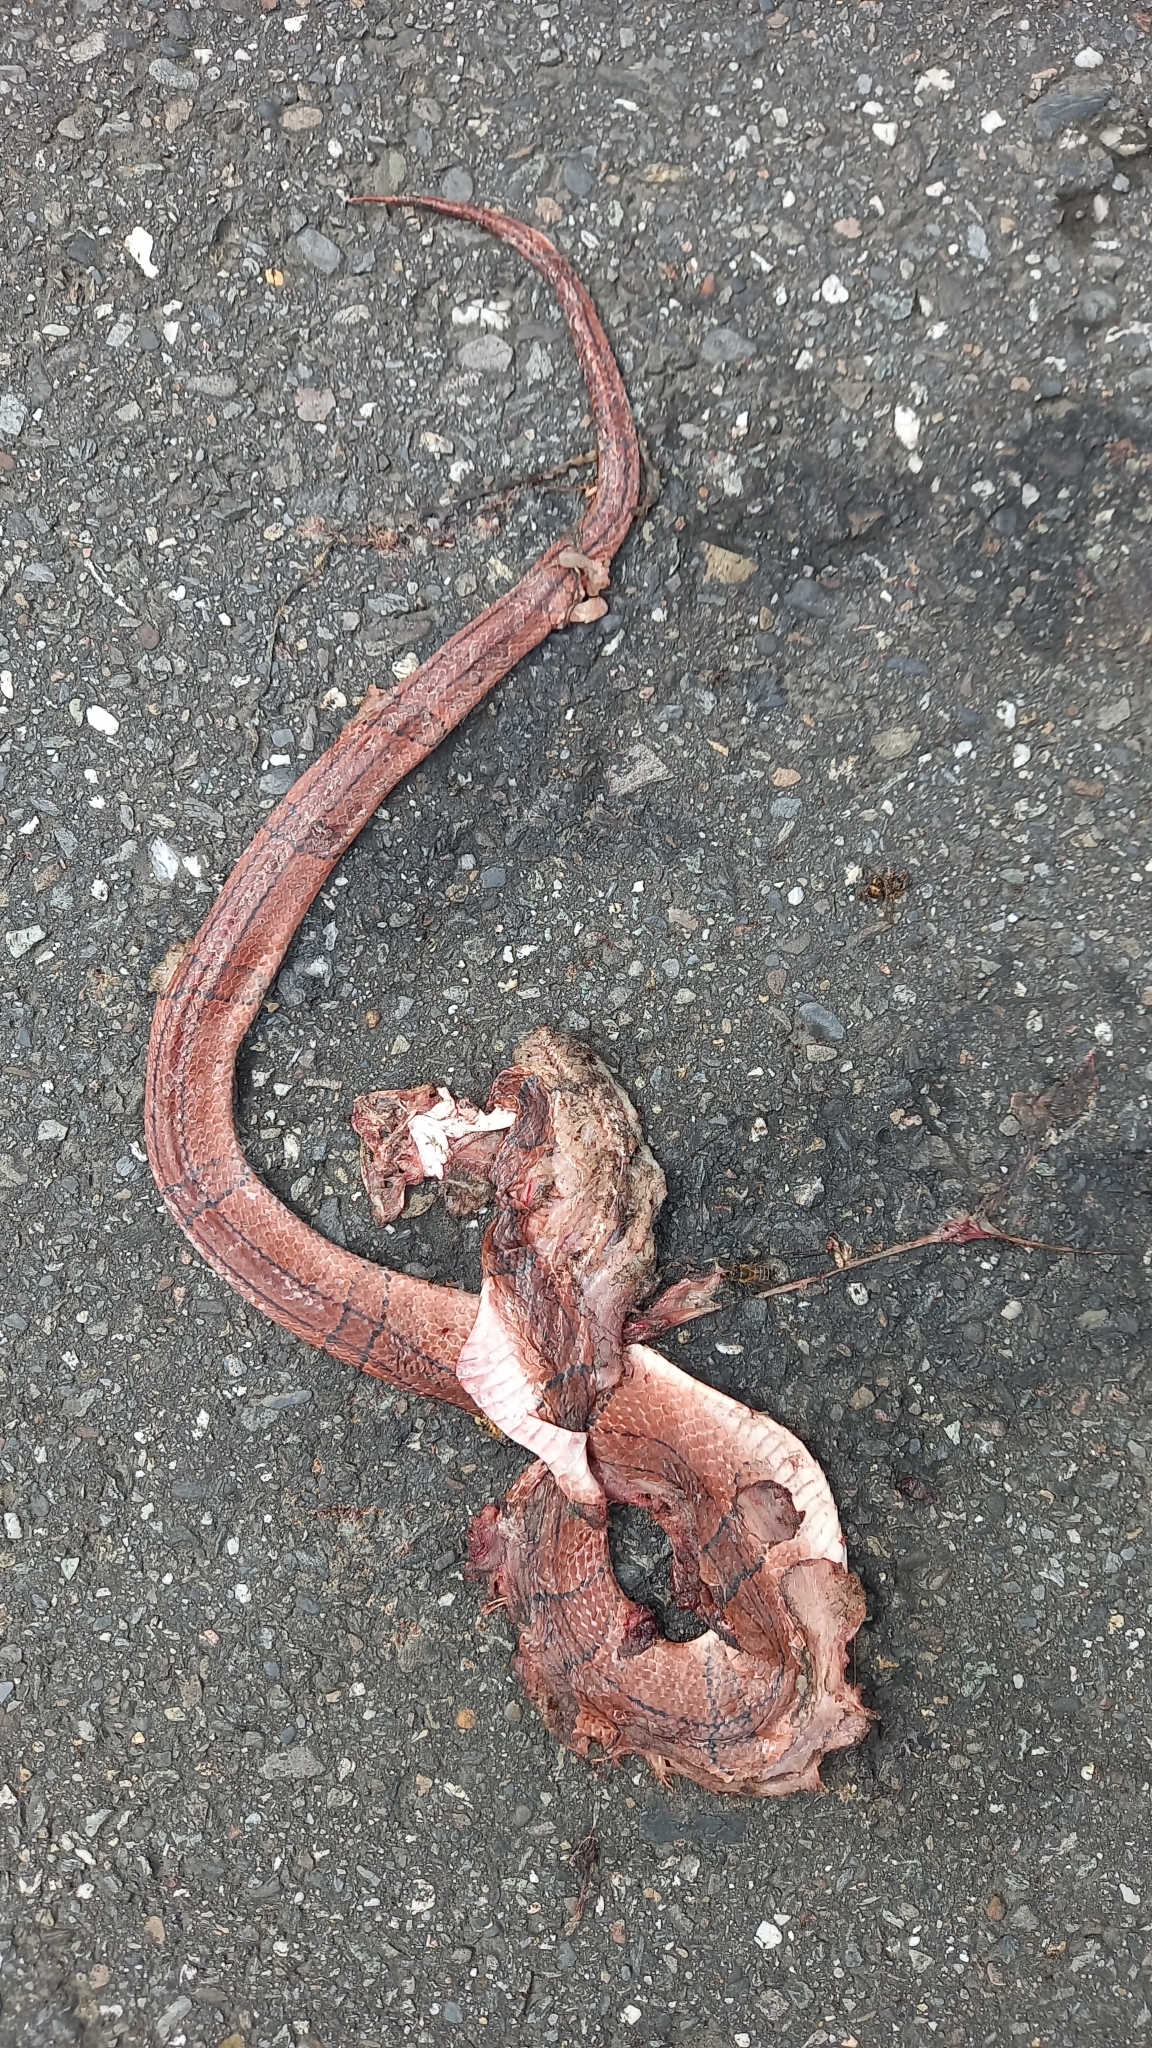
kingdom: Animalia
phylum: Chordata
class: Squamata
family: Colubridae
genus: Oreocryptophis
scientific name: Oreocryptophis porphyraceus
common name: Black-banded trinket snake
